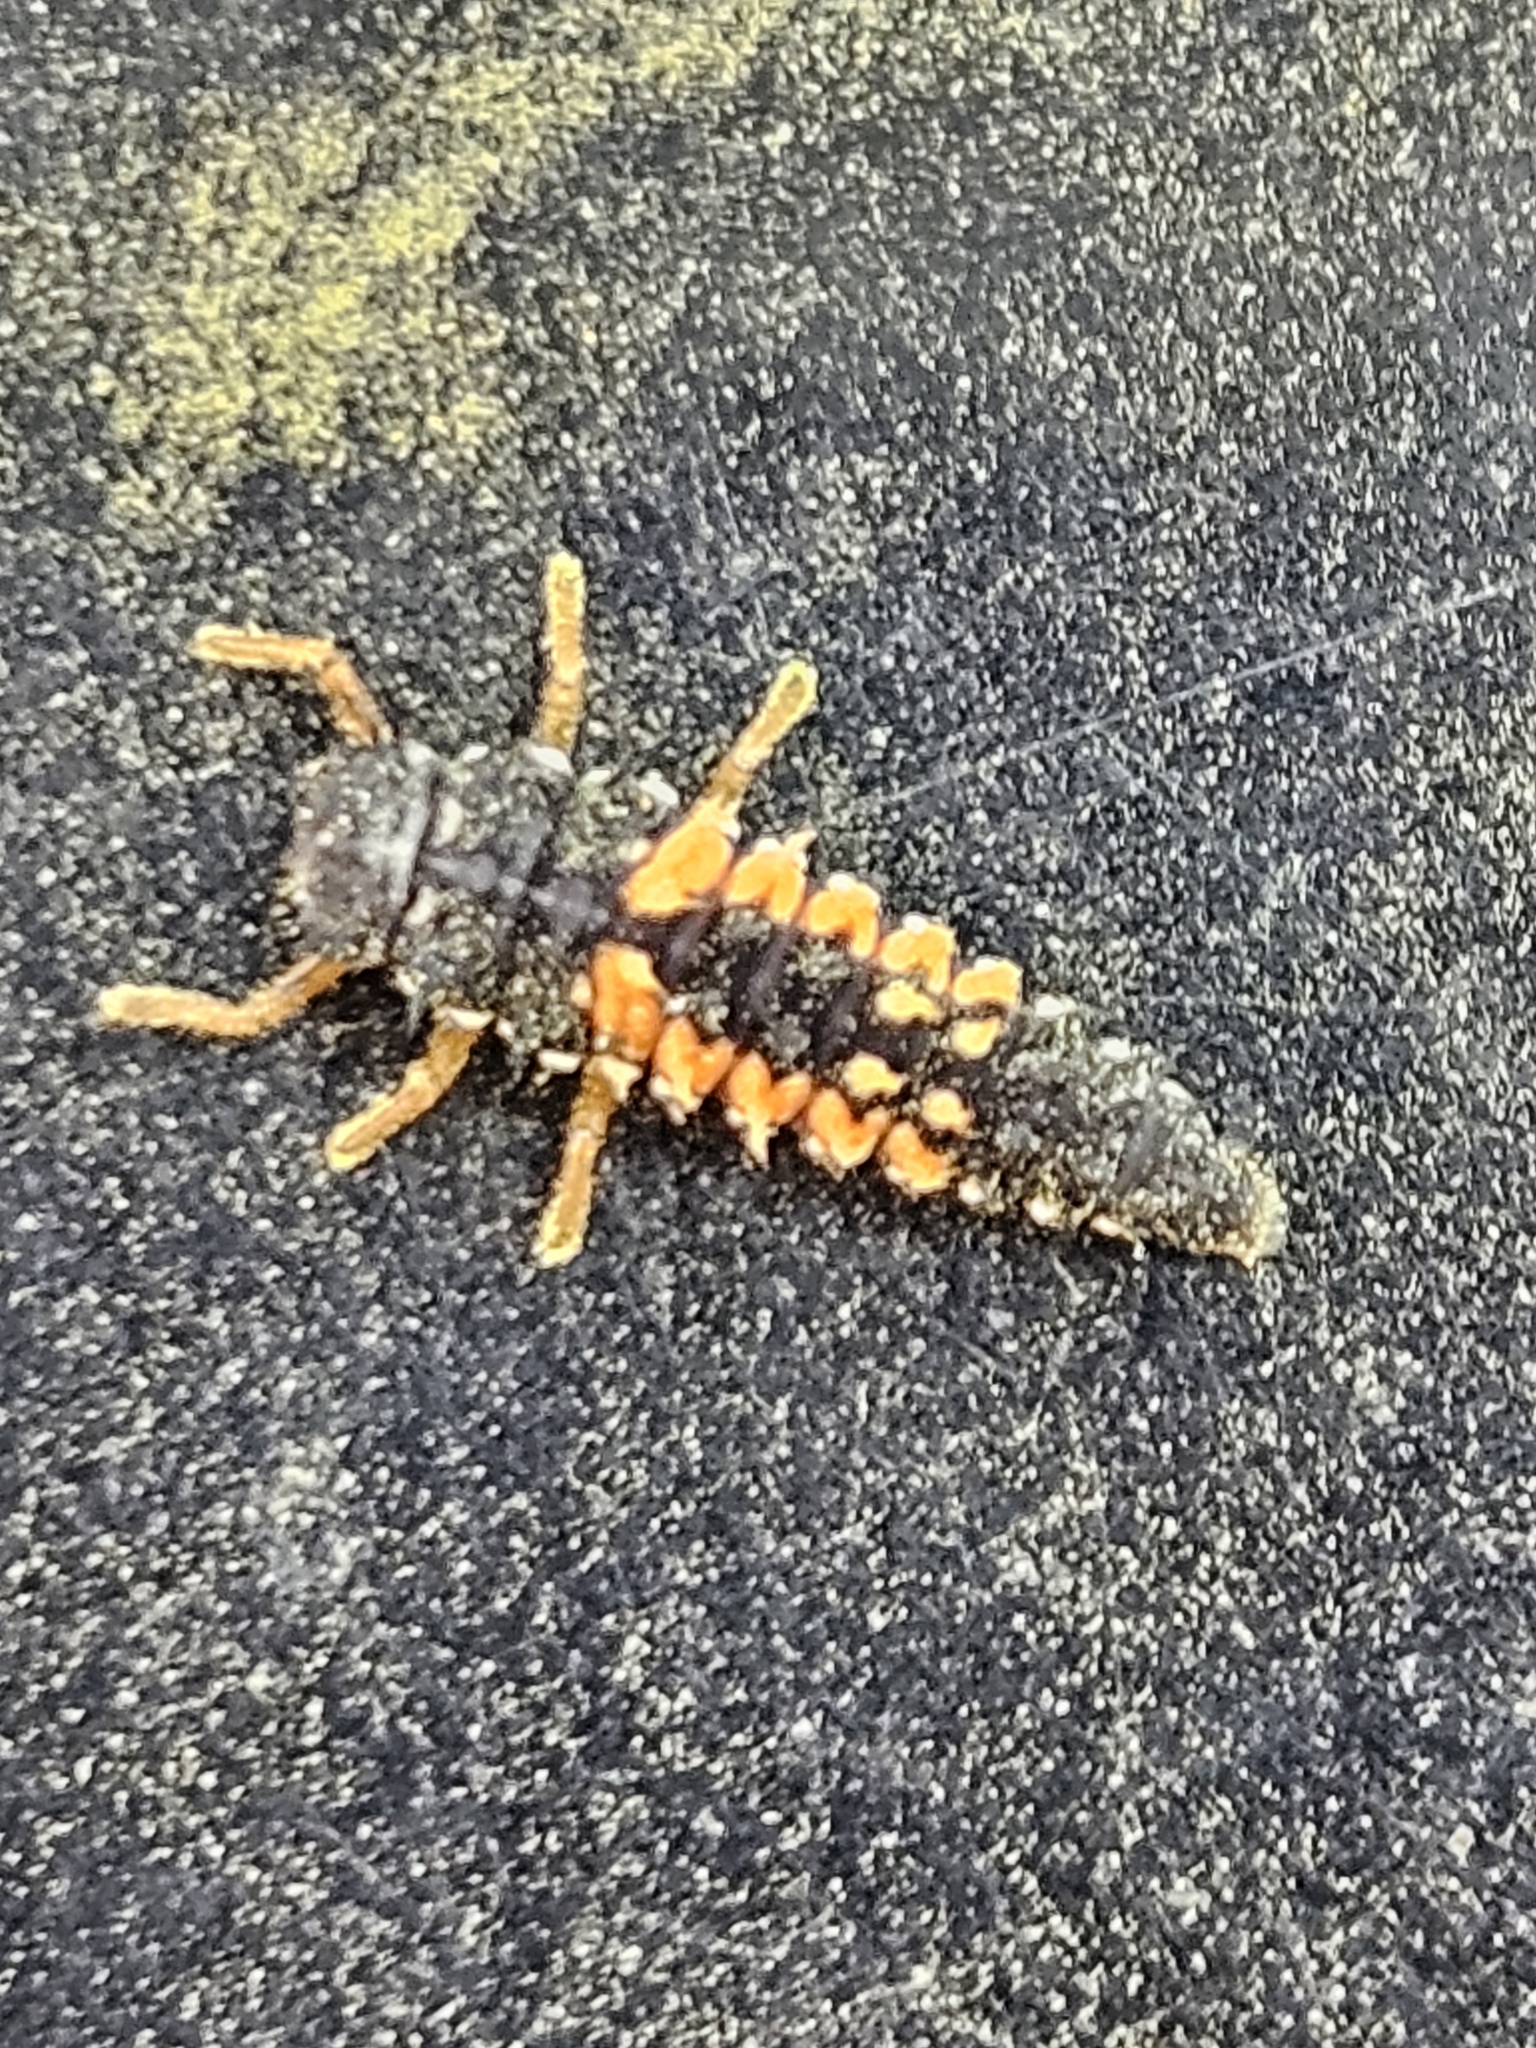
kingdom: Animalia
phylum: Arthropoda
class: Insecta
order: Coleoptera
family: Coccinellidae
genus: Harmonia
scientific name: Harmonia axyridis
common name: Harlequin ladybird
